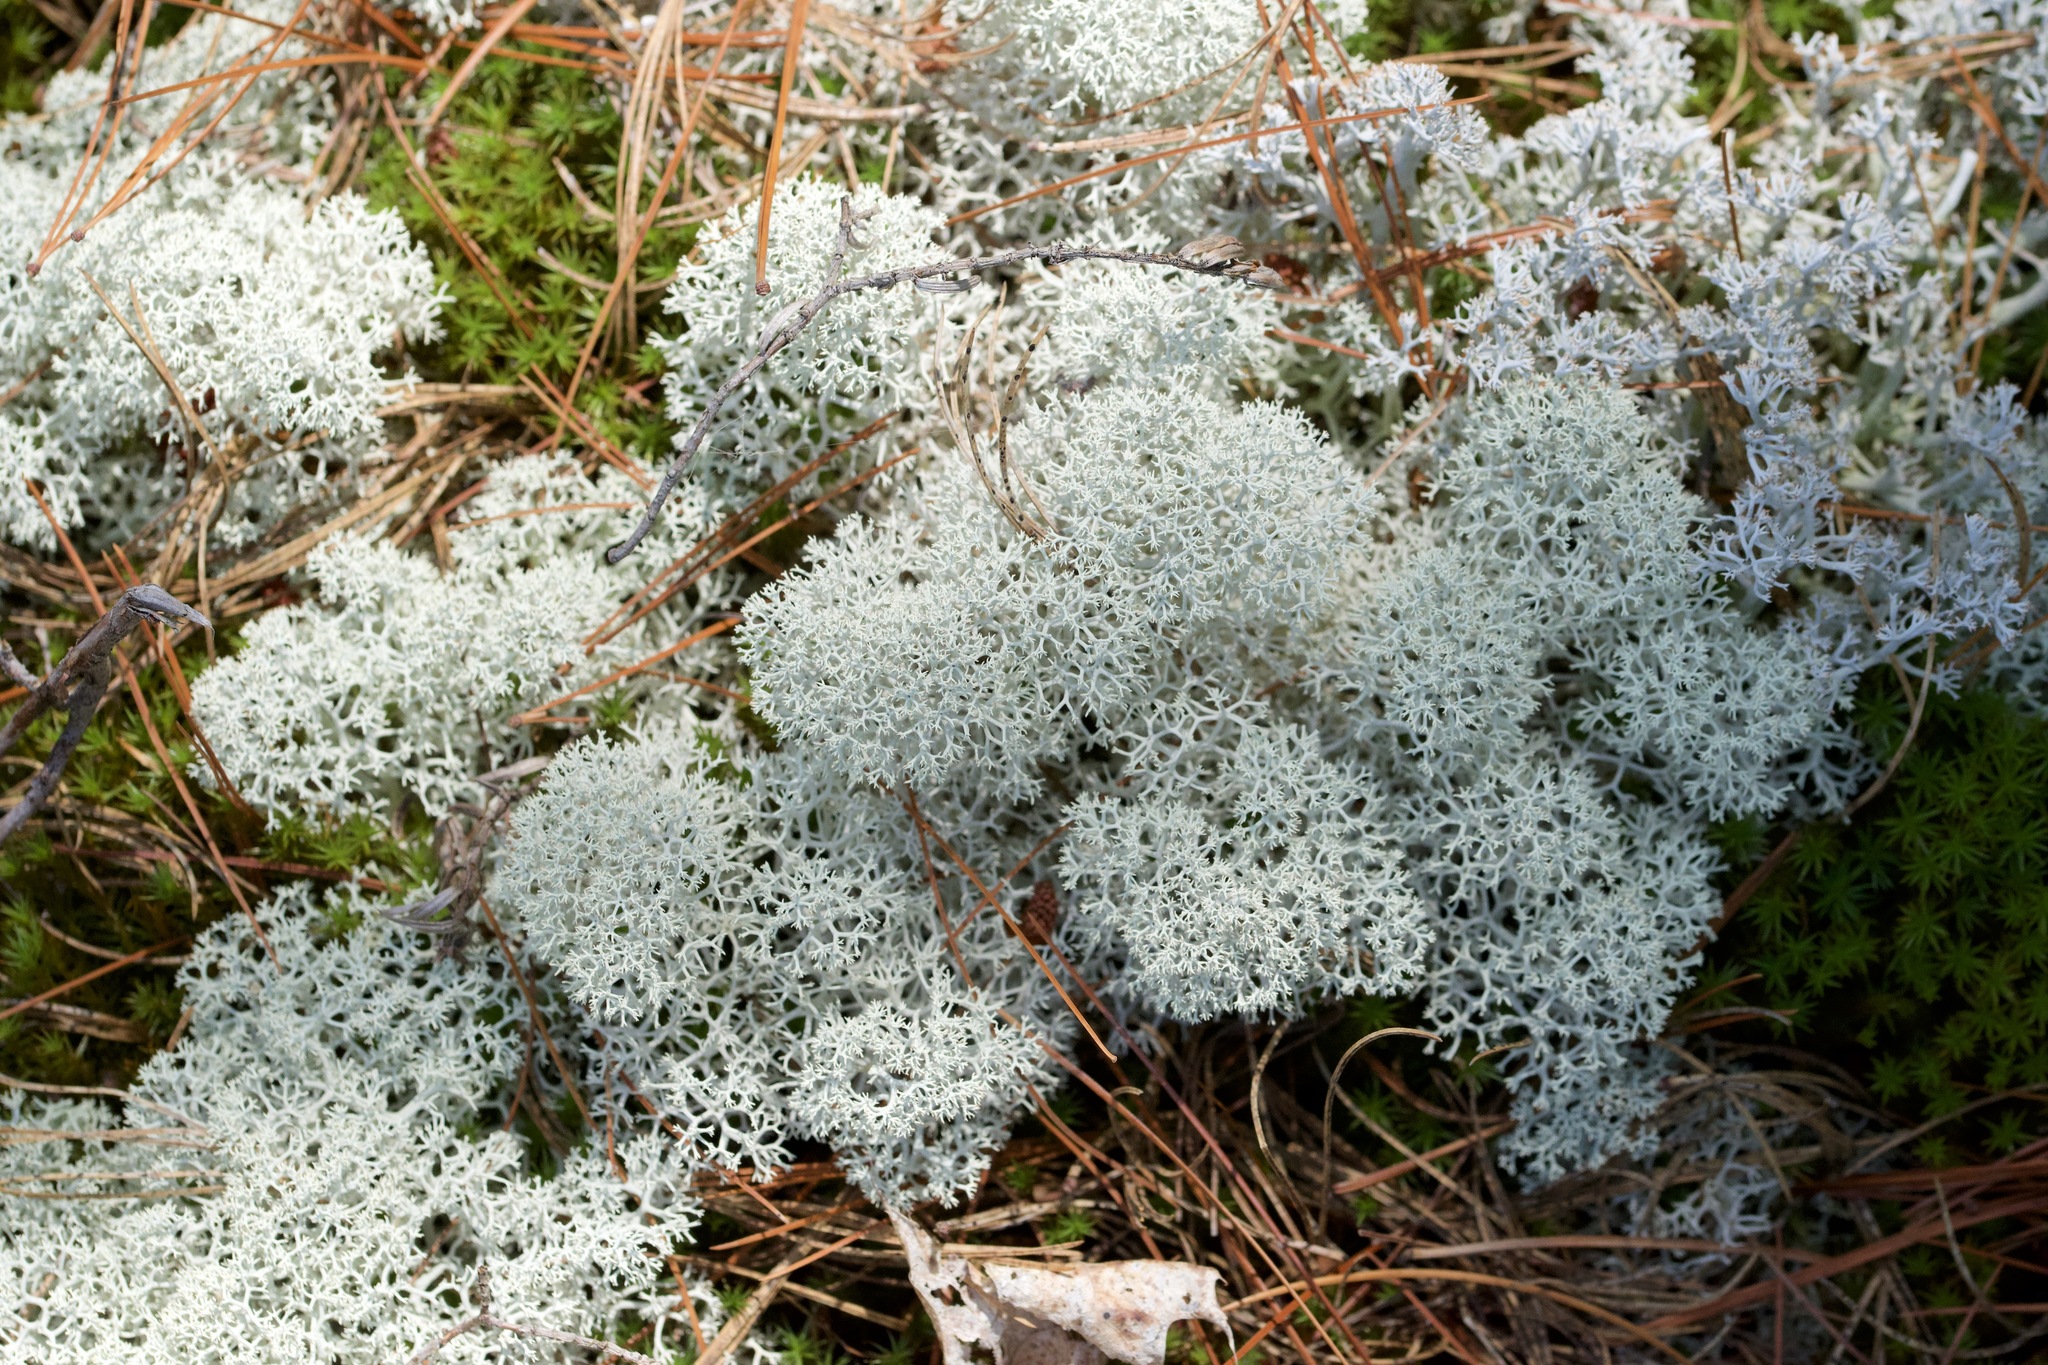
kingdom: Fungi
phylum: Ascomycota
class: Lecanoromycetes
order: Lecanorales
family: Cladoniaceae
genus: Cladonia
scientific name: Cladonia stellaris
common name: Star-tipped reindeer lichen
